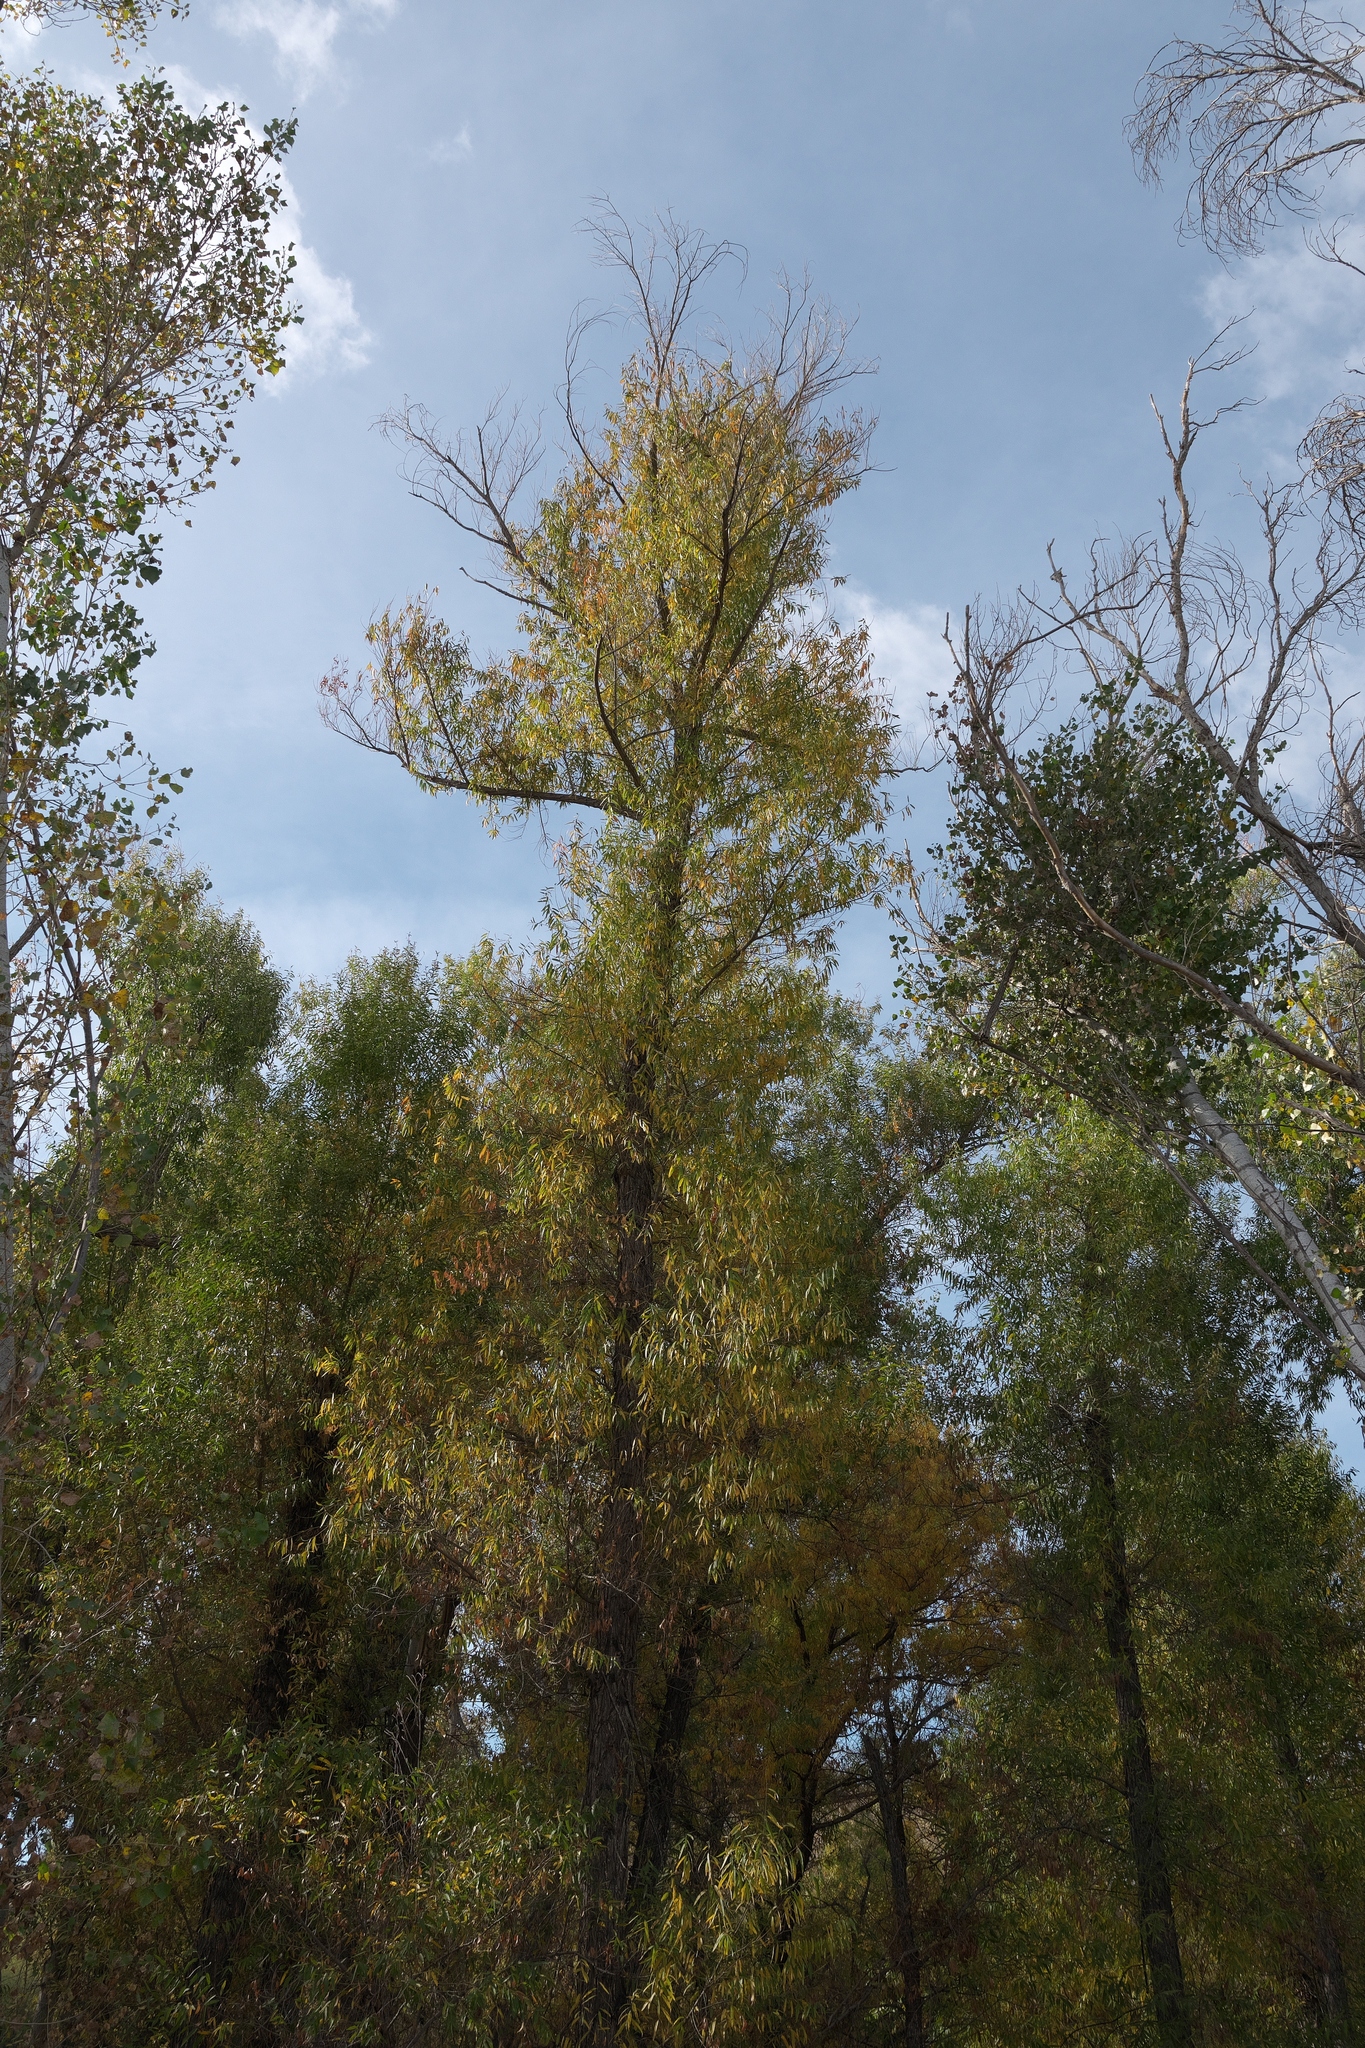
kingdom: Plantae
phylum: Tracheophyta
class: Magnoliopsida
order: Malpighiales
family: Salicaceae
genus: Salix
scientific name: Salix gooddingii
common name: Goodding's willow
